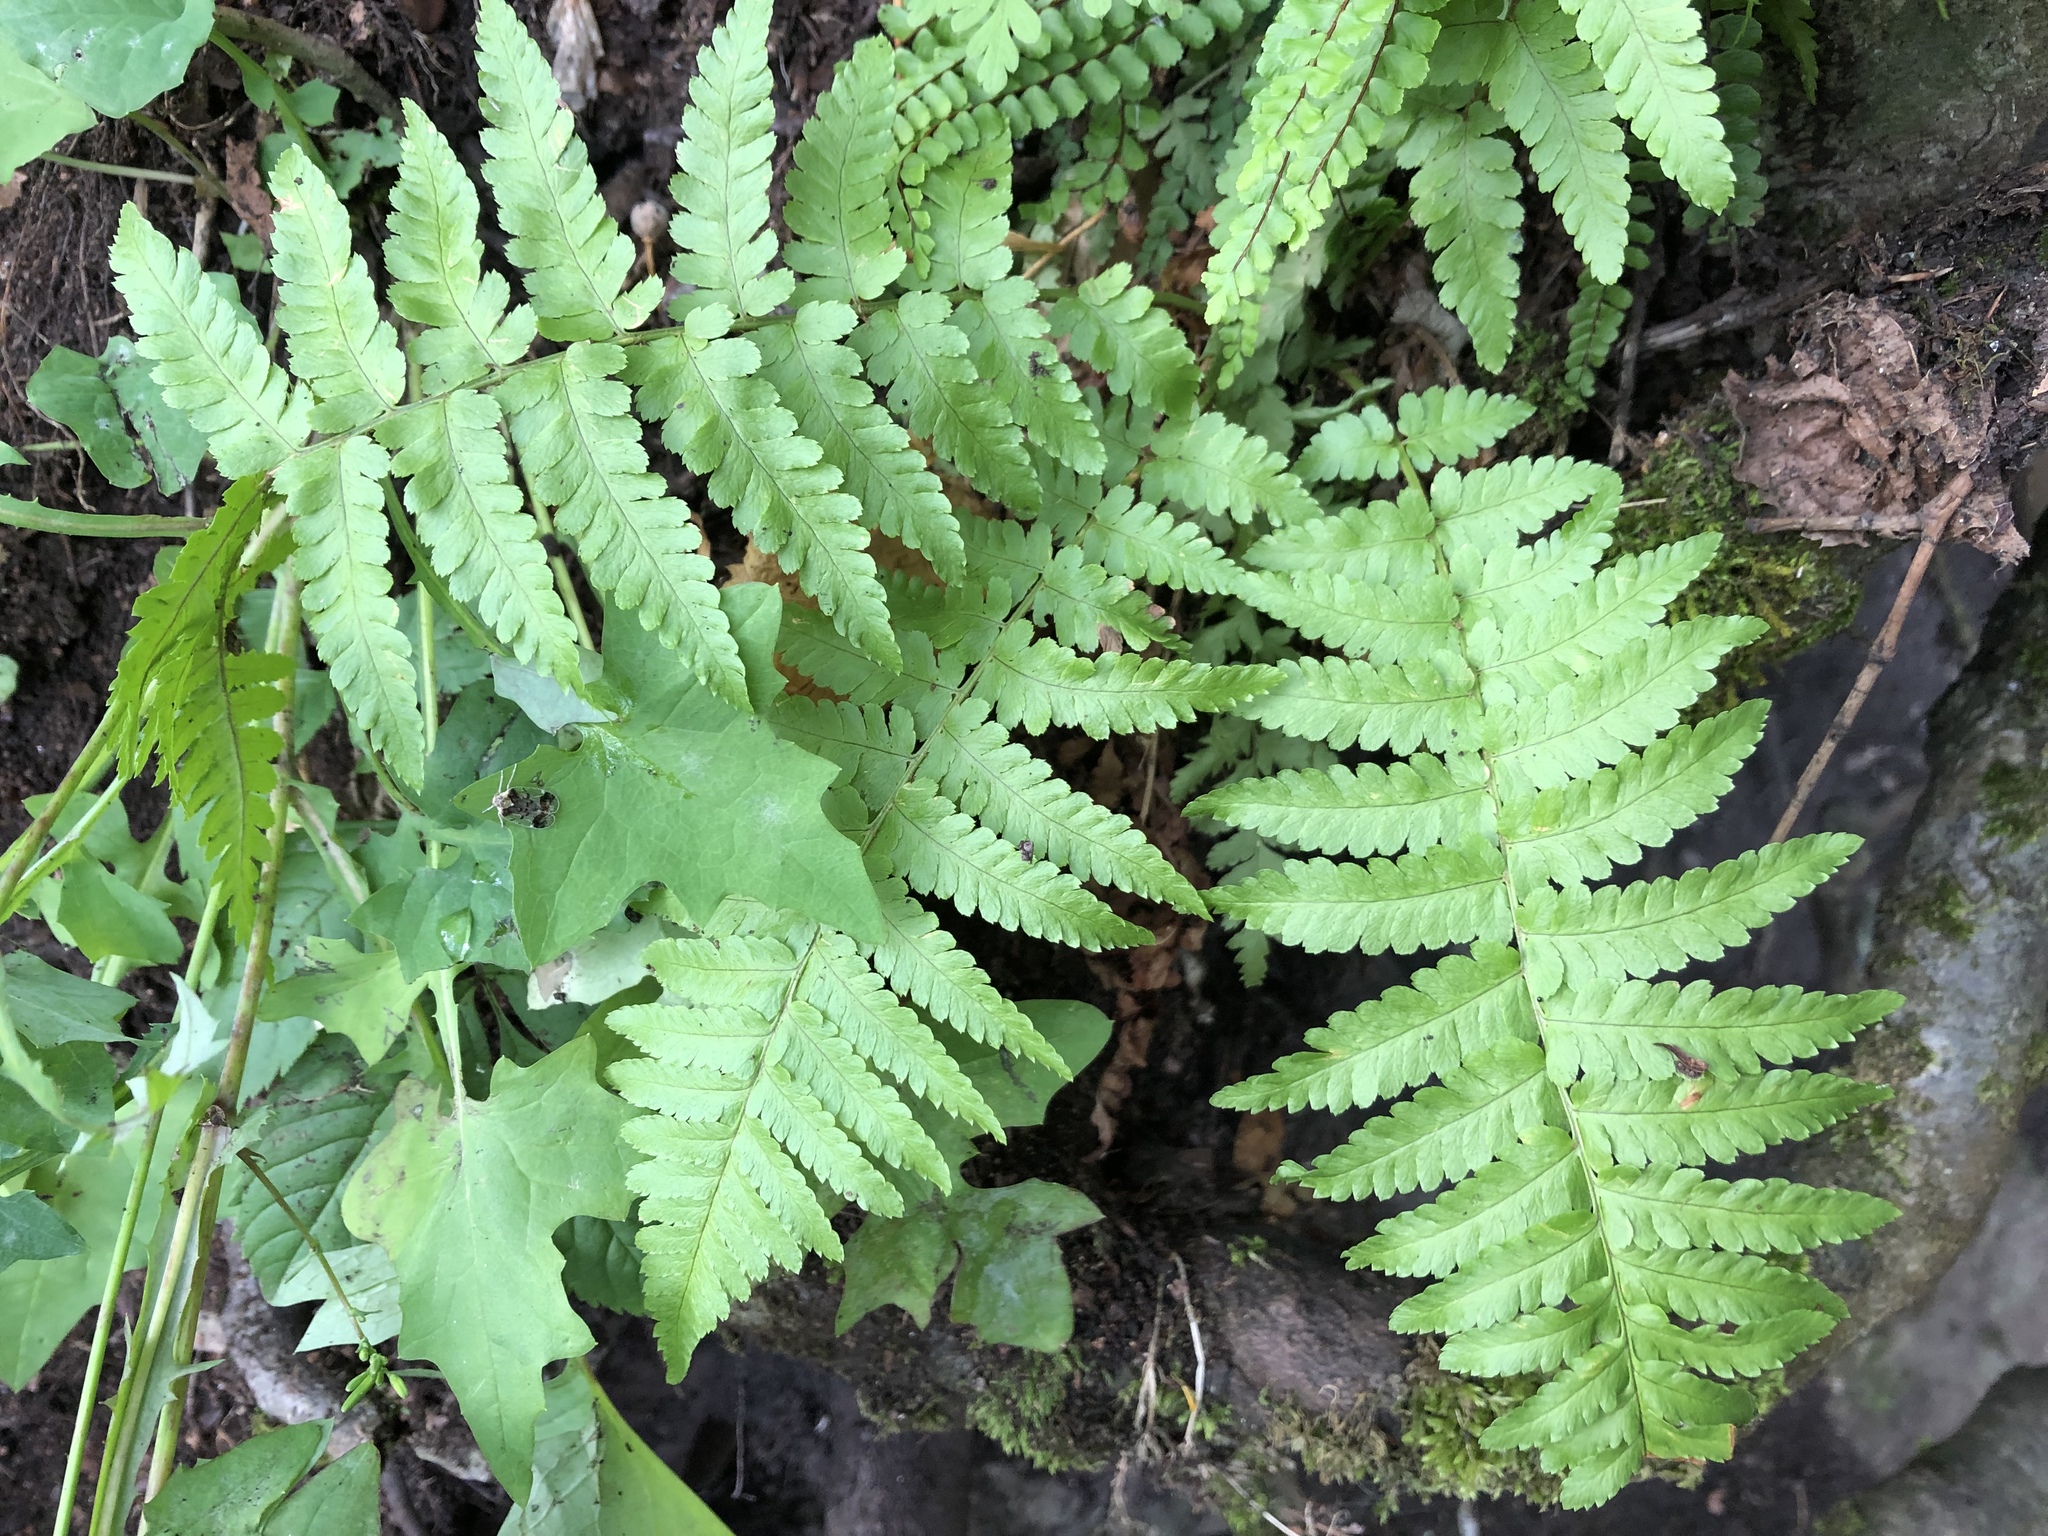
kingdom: Plantae
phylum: Tracheophyta
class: Polypodiopsida
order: Polypodiales
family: Dryopteridaceae
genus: Dryopteris
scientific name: Dryopteris filix-mas
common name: Male fern
